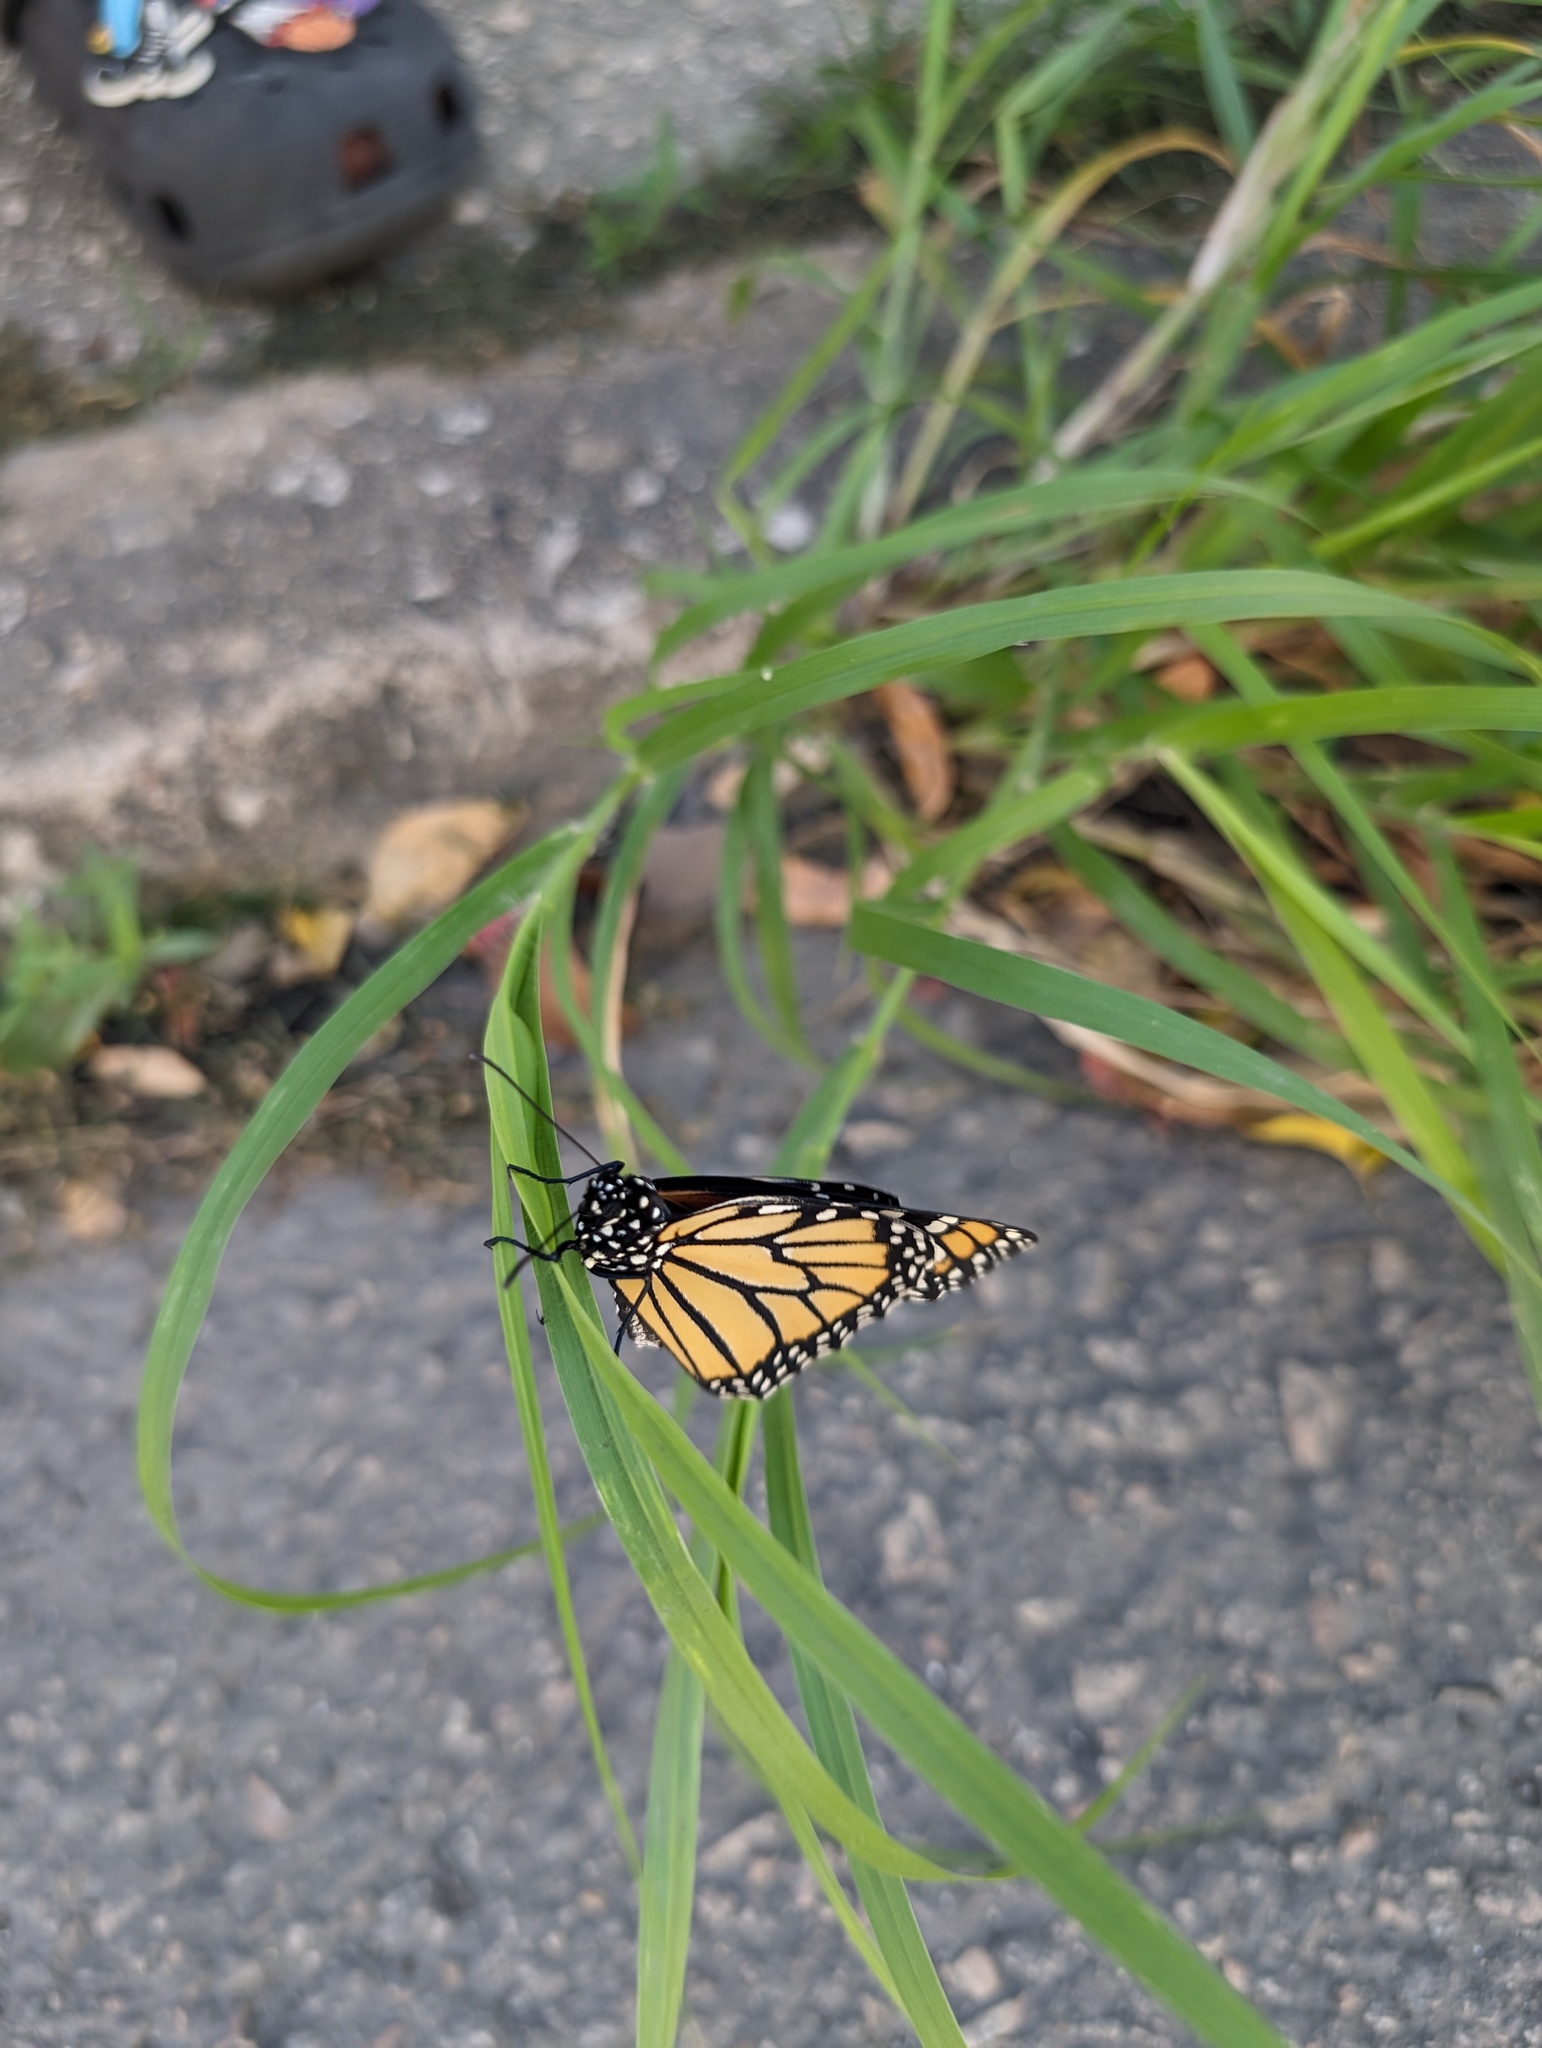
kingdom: Animalia
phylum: Arthropoda
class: Insecta
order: Lepidoptera
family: Nymphalidae
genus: Danaus
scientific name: Danaus plexippus
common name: Monarch
